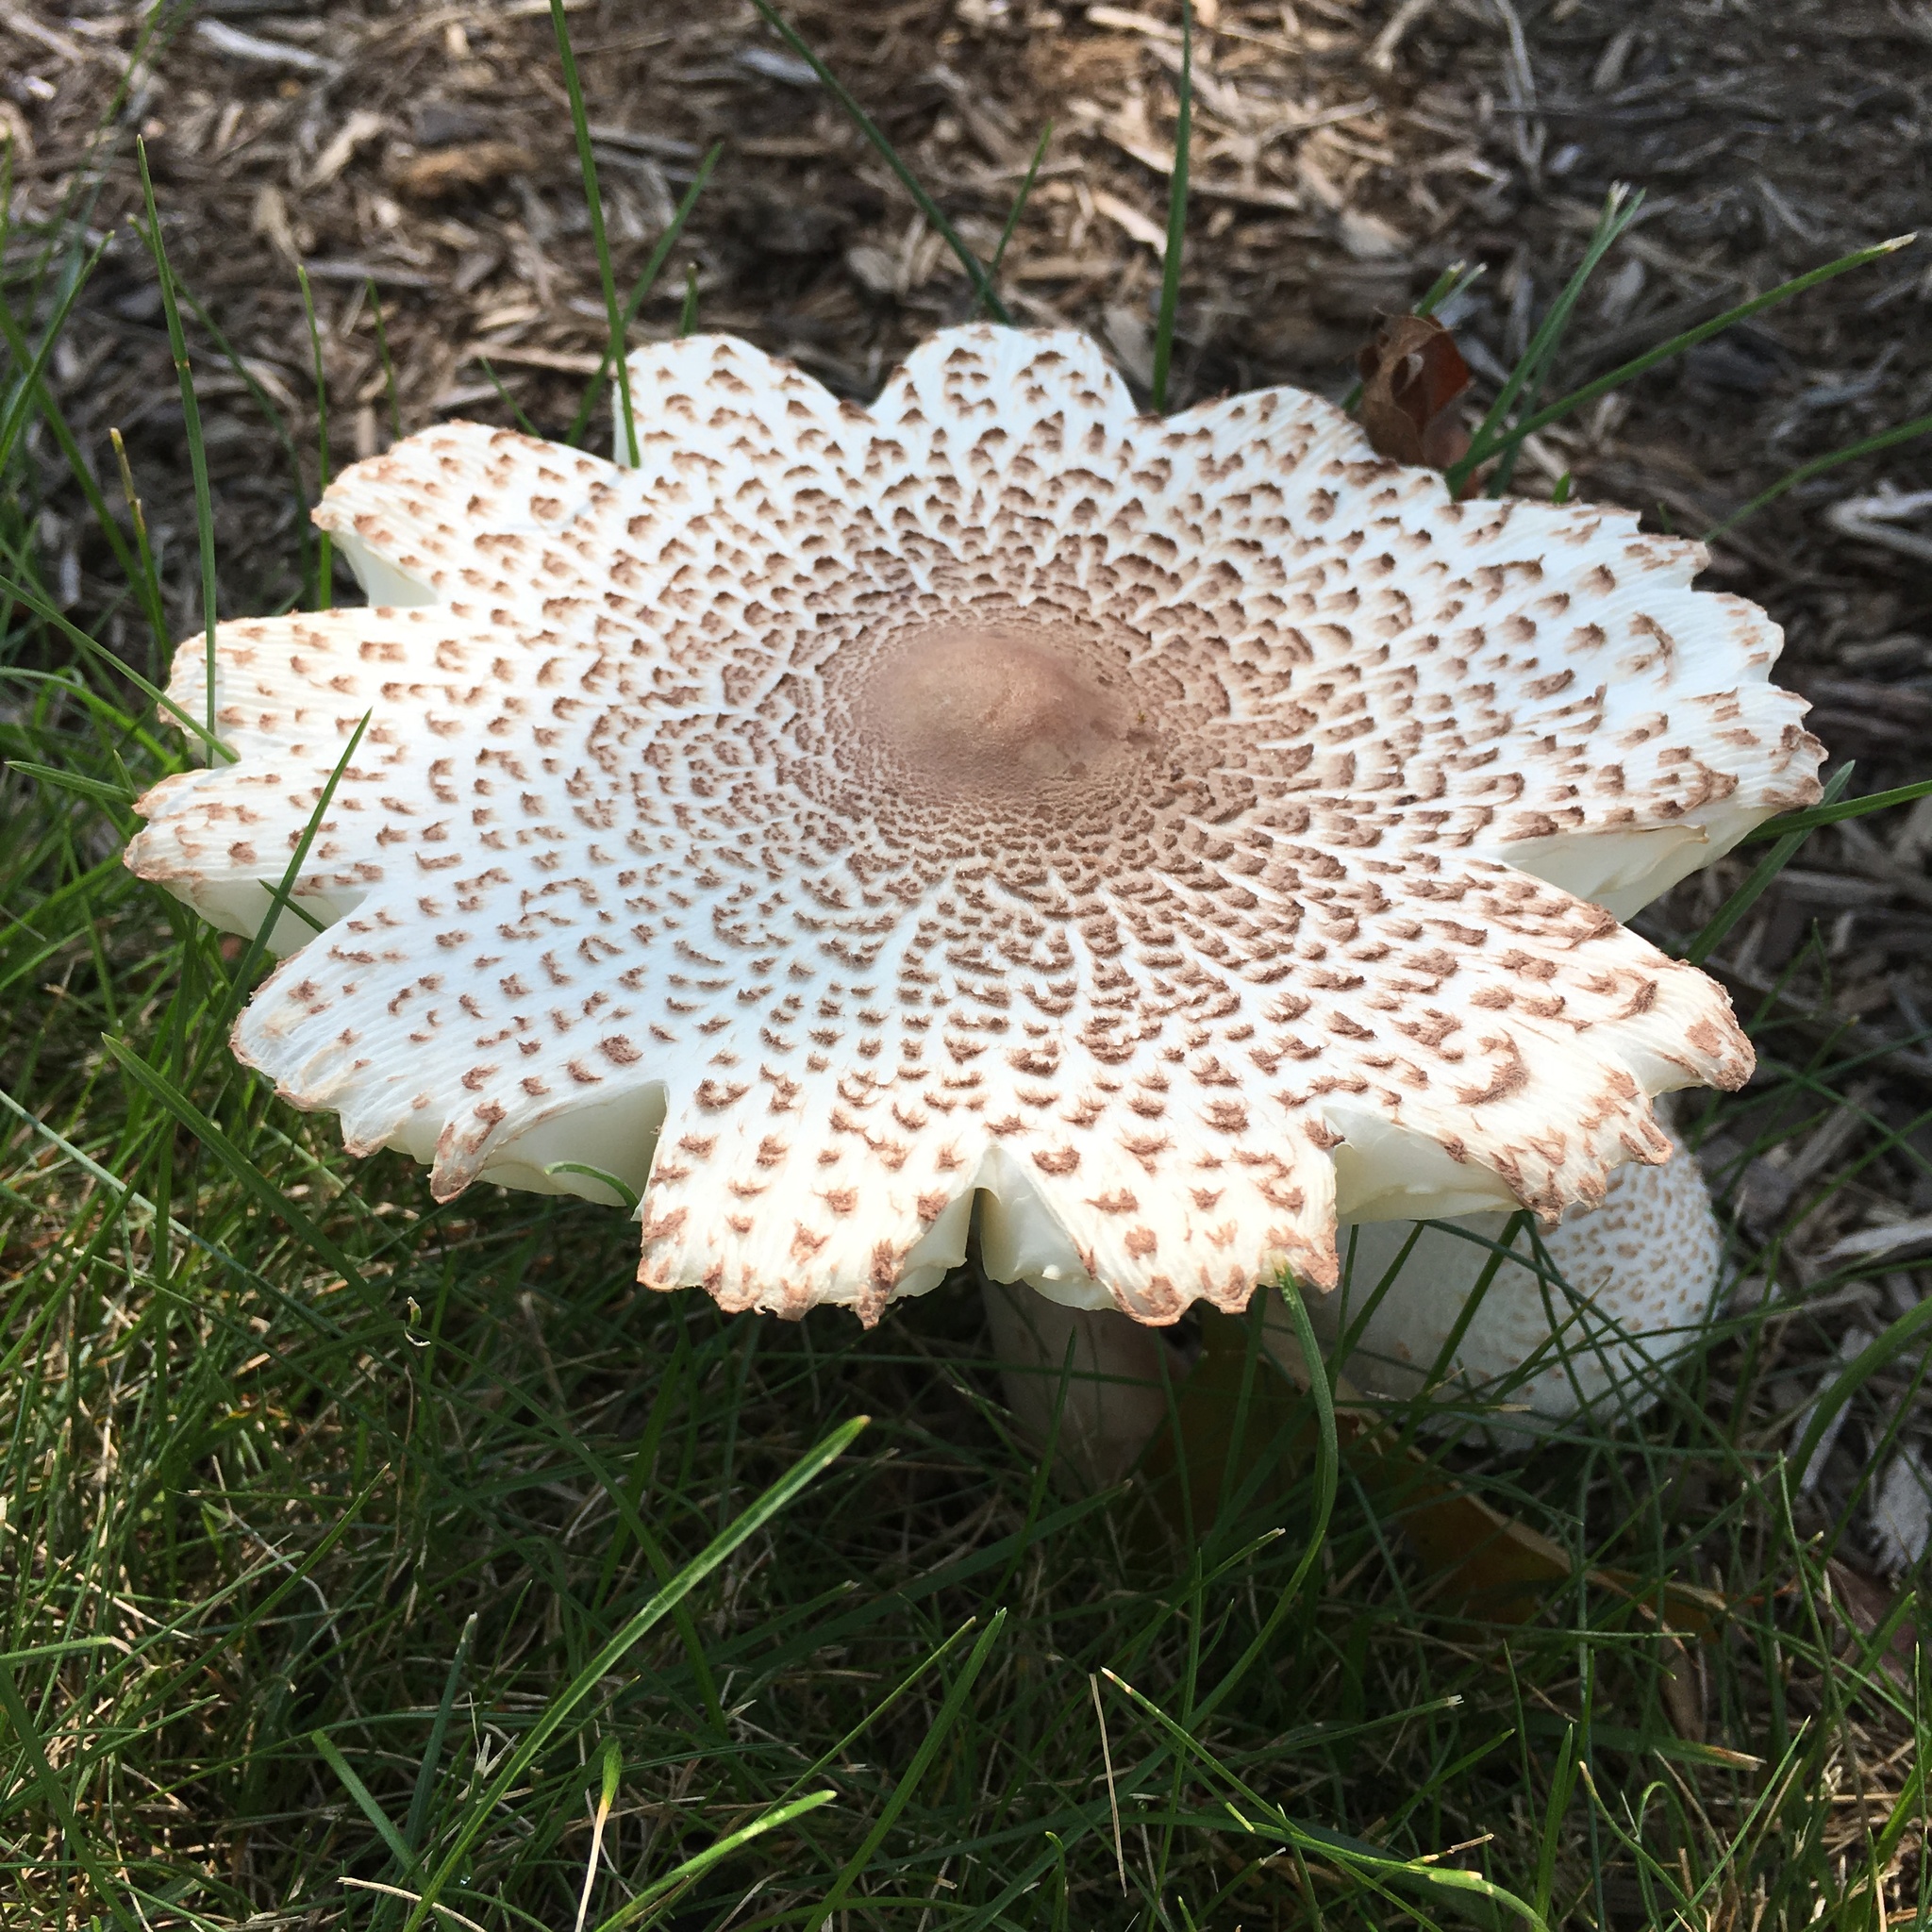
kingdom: Fungi
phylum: Basidiomycota
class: Agaricomycetes
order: Agaricales
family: Agaricaceae
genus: Leucoagaricus
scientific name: Leucoagaricus americanus
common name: Reddening lepiota
